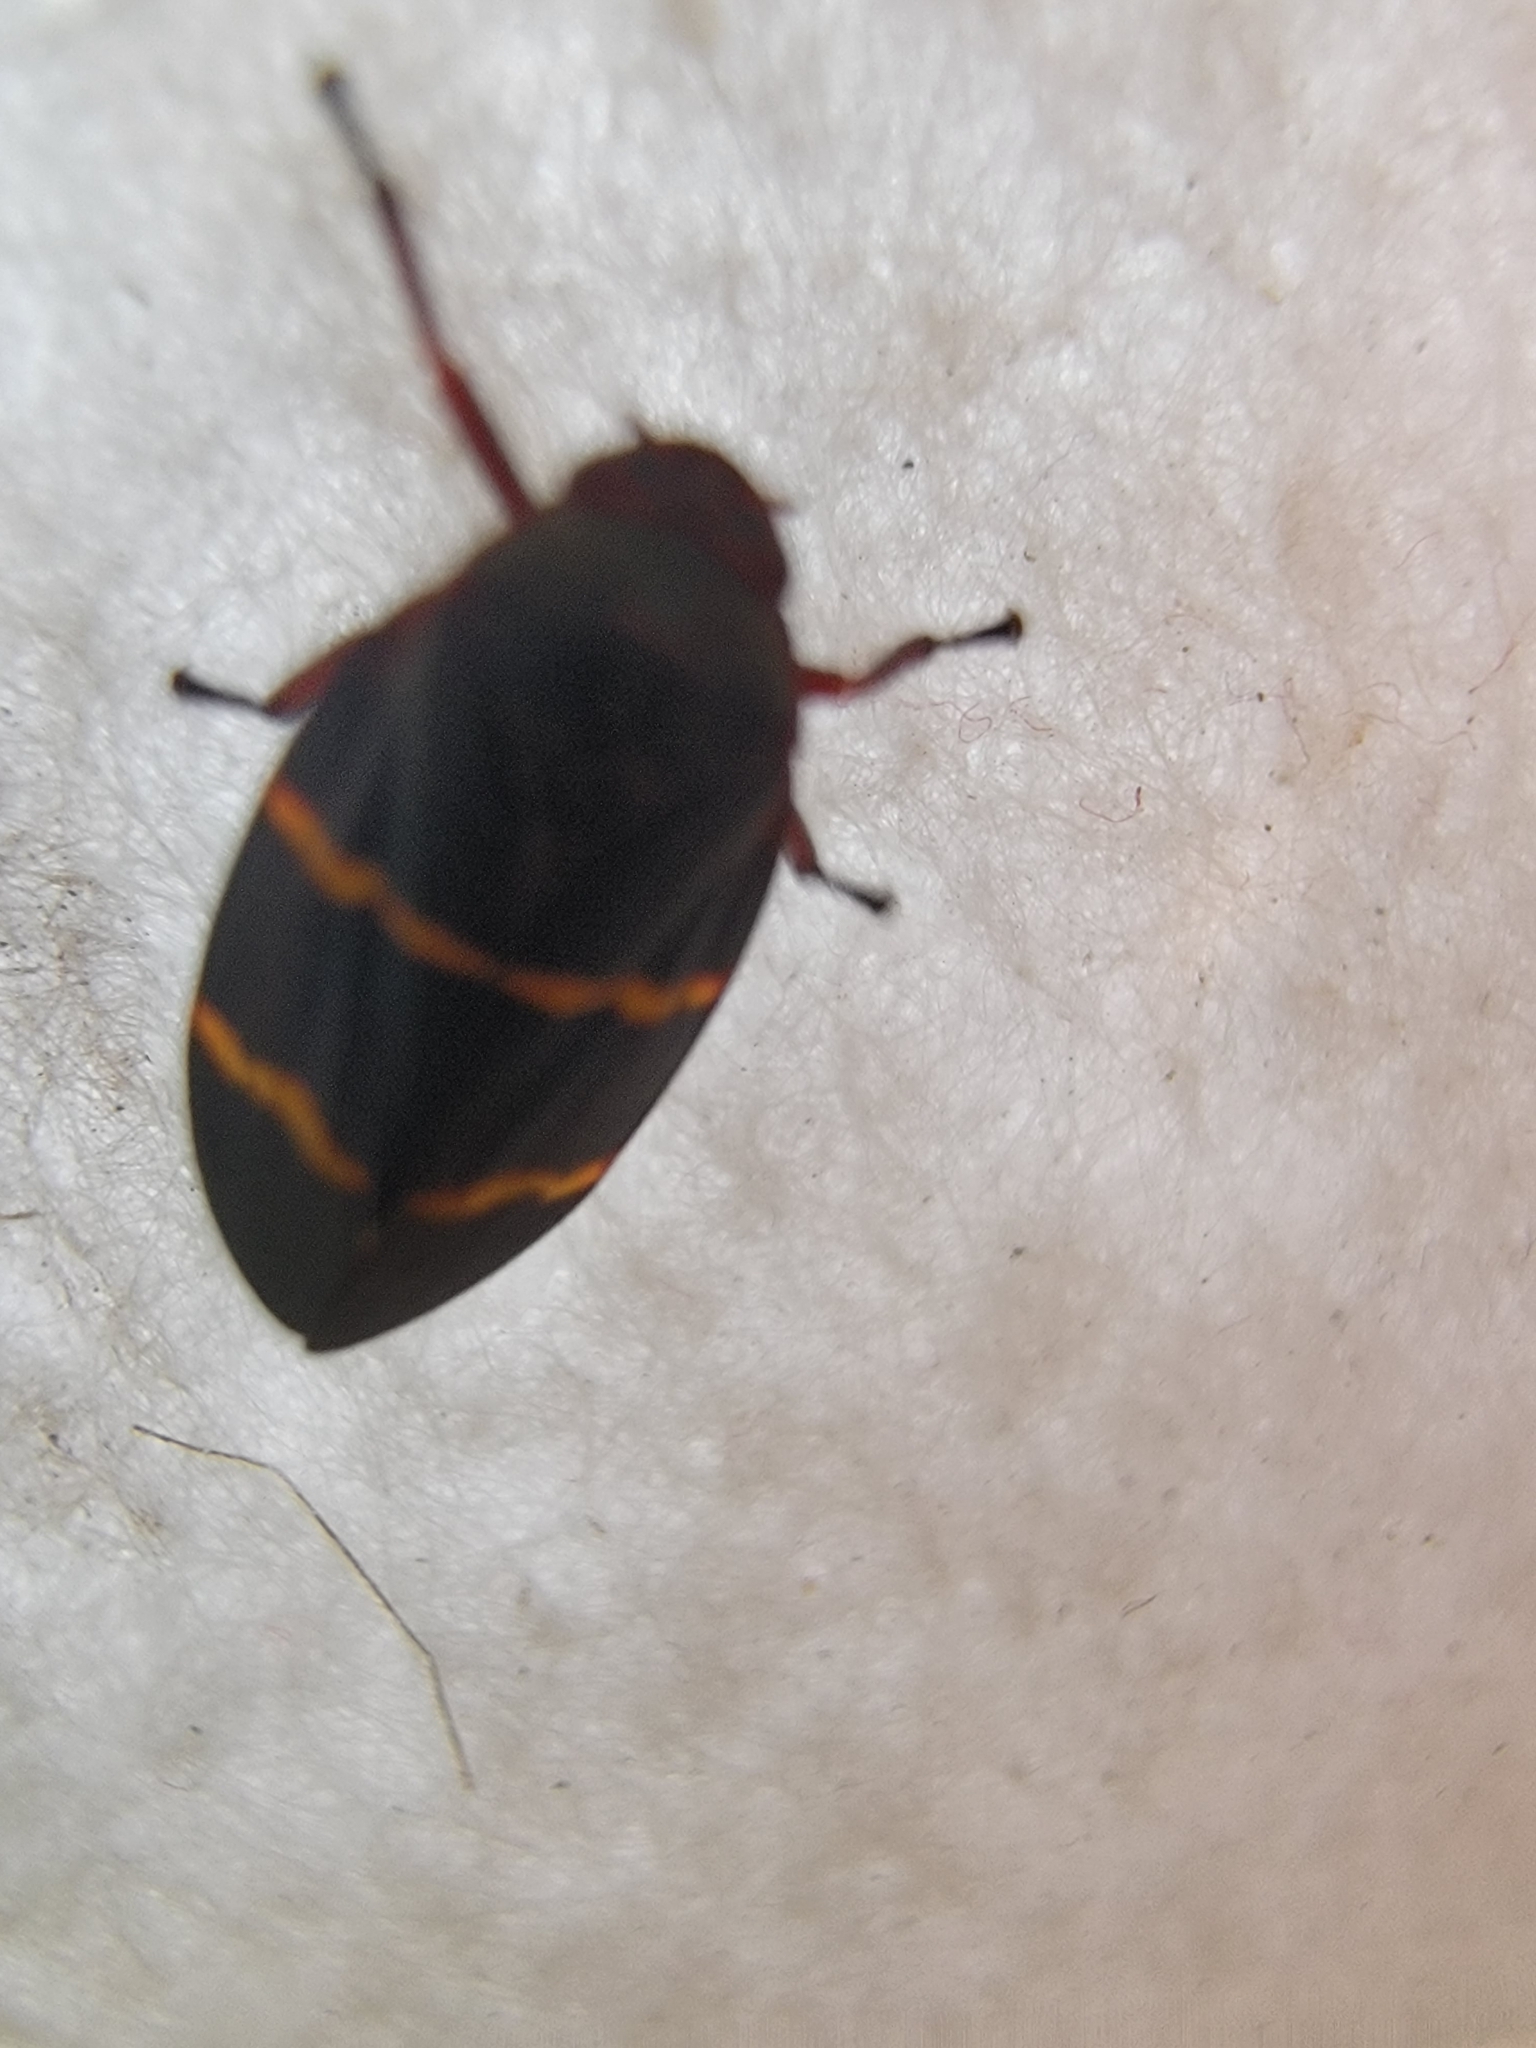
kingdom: Animalia
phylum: Arthropoda
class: Insecta
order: Hemiptera
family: Cercopidae
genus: Prosapia
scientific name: Prosapia bicincta
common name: Twolined spittlebug
